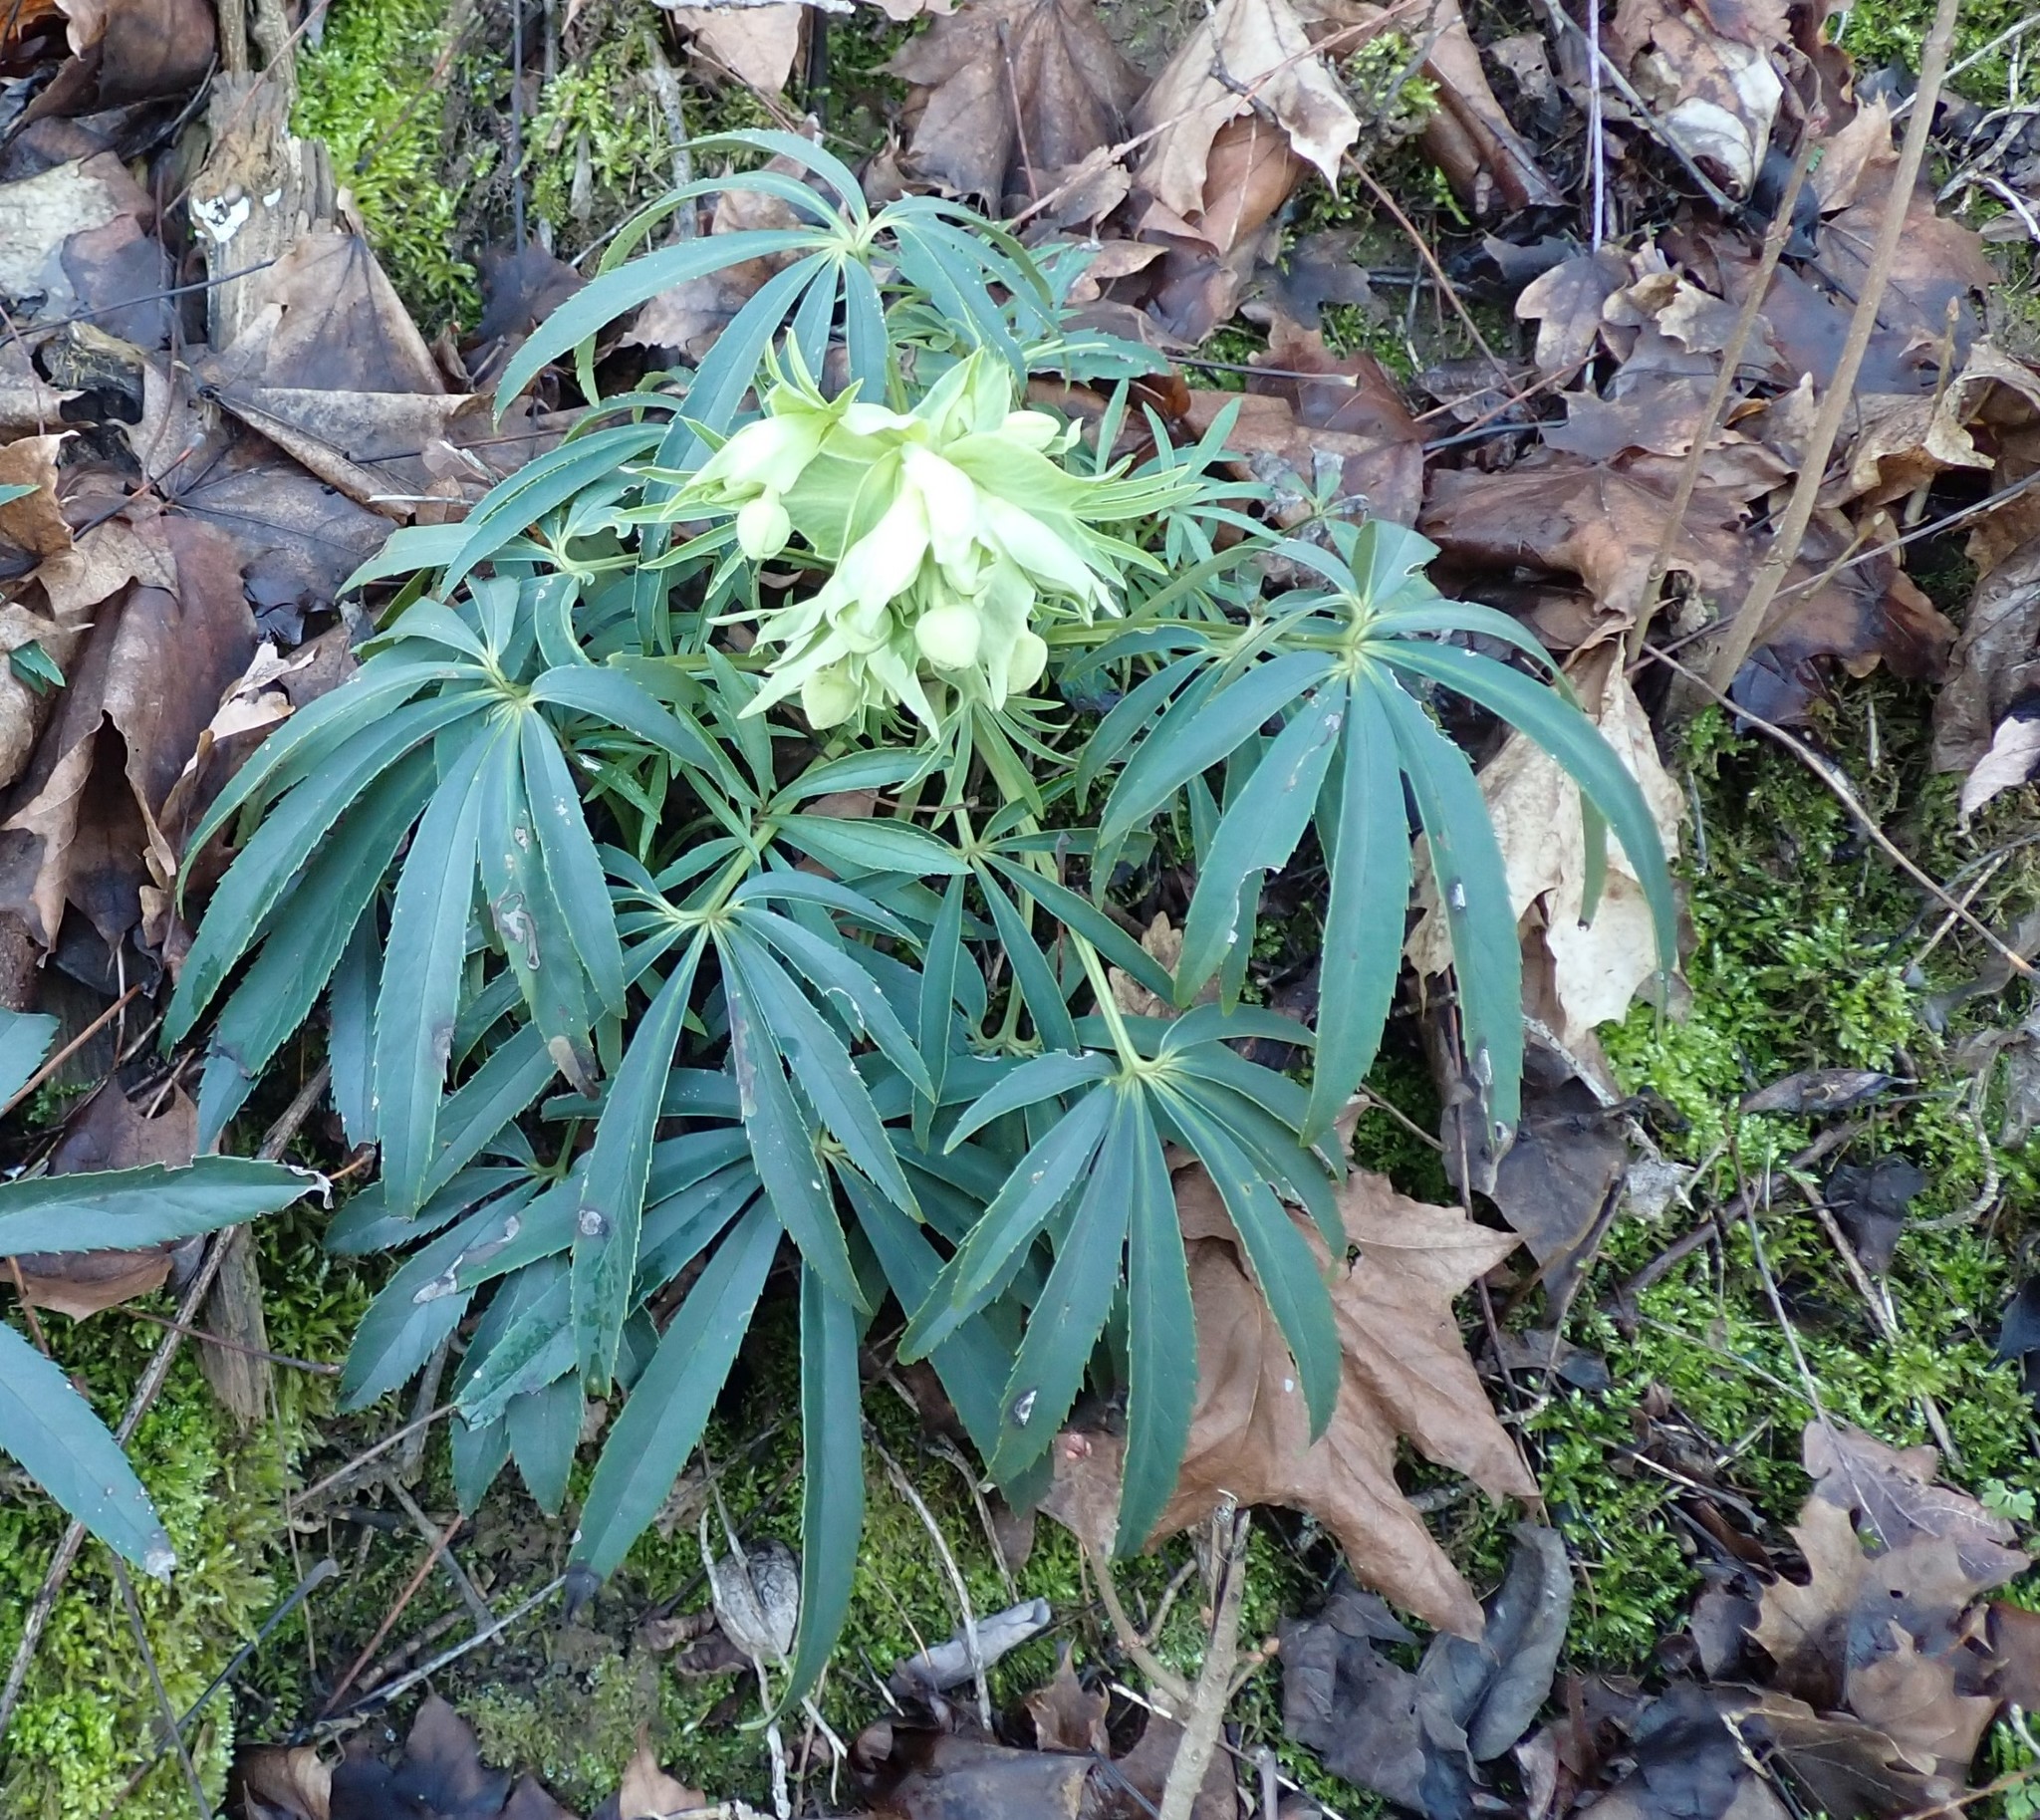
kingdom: Plantae
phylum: Tracheophyta
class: Magnoliopsida
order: Ranunculales
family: Ranunculaceae
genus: Helleborus
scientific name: Helleborus foetidus
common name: Stinking hellebore
